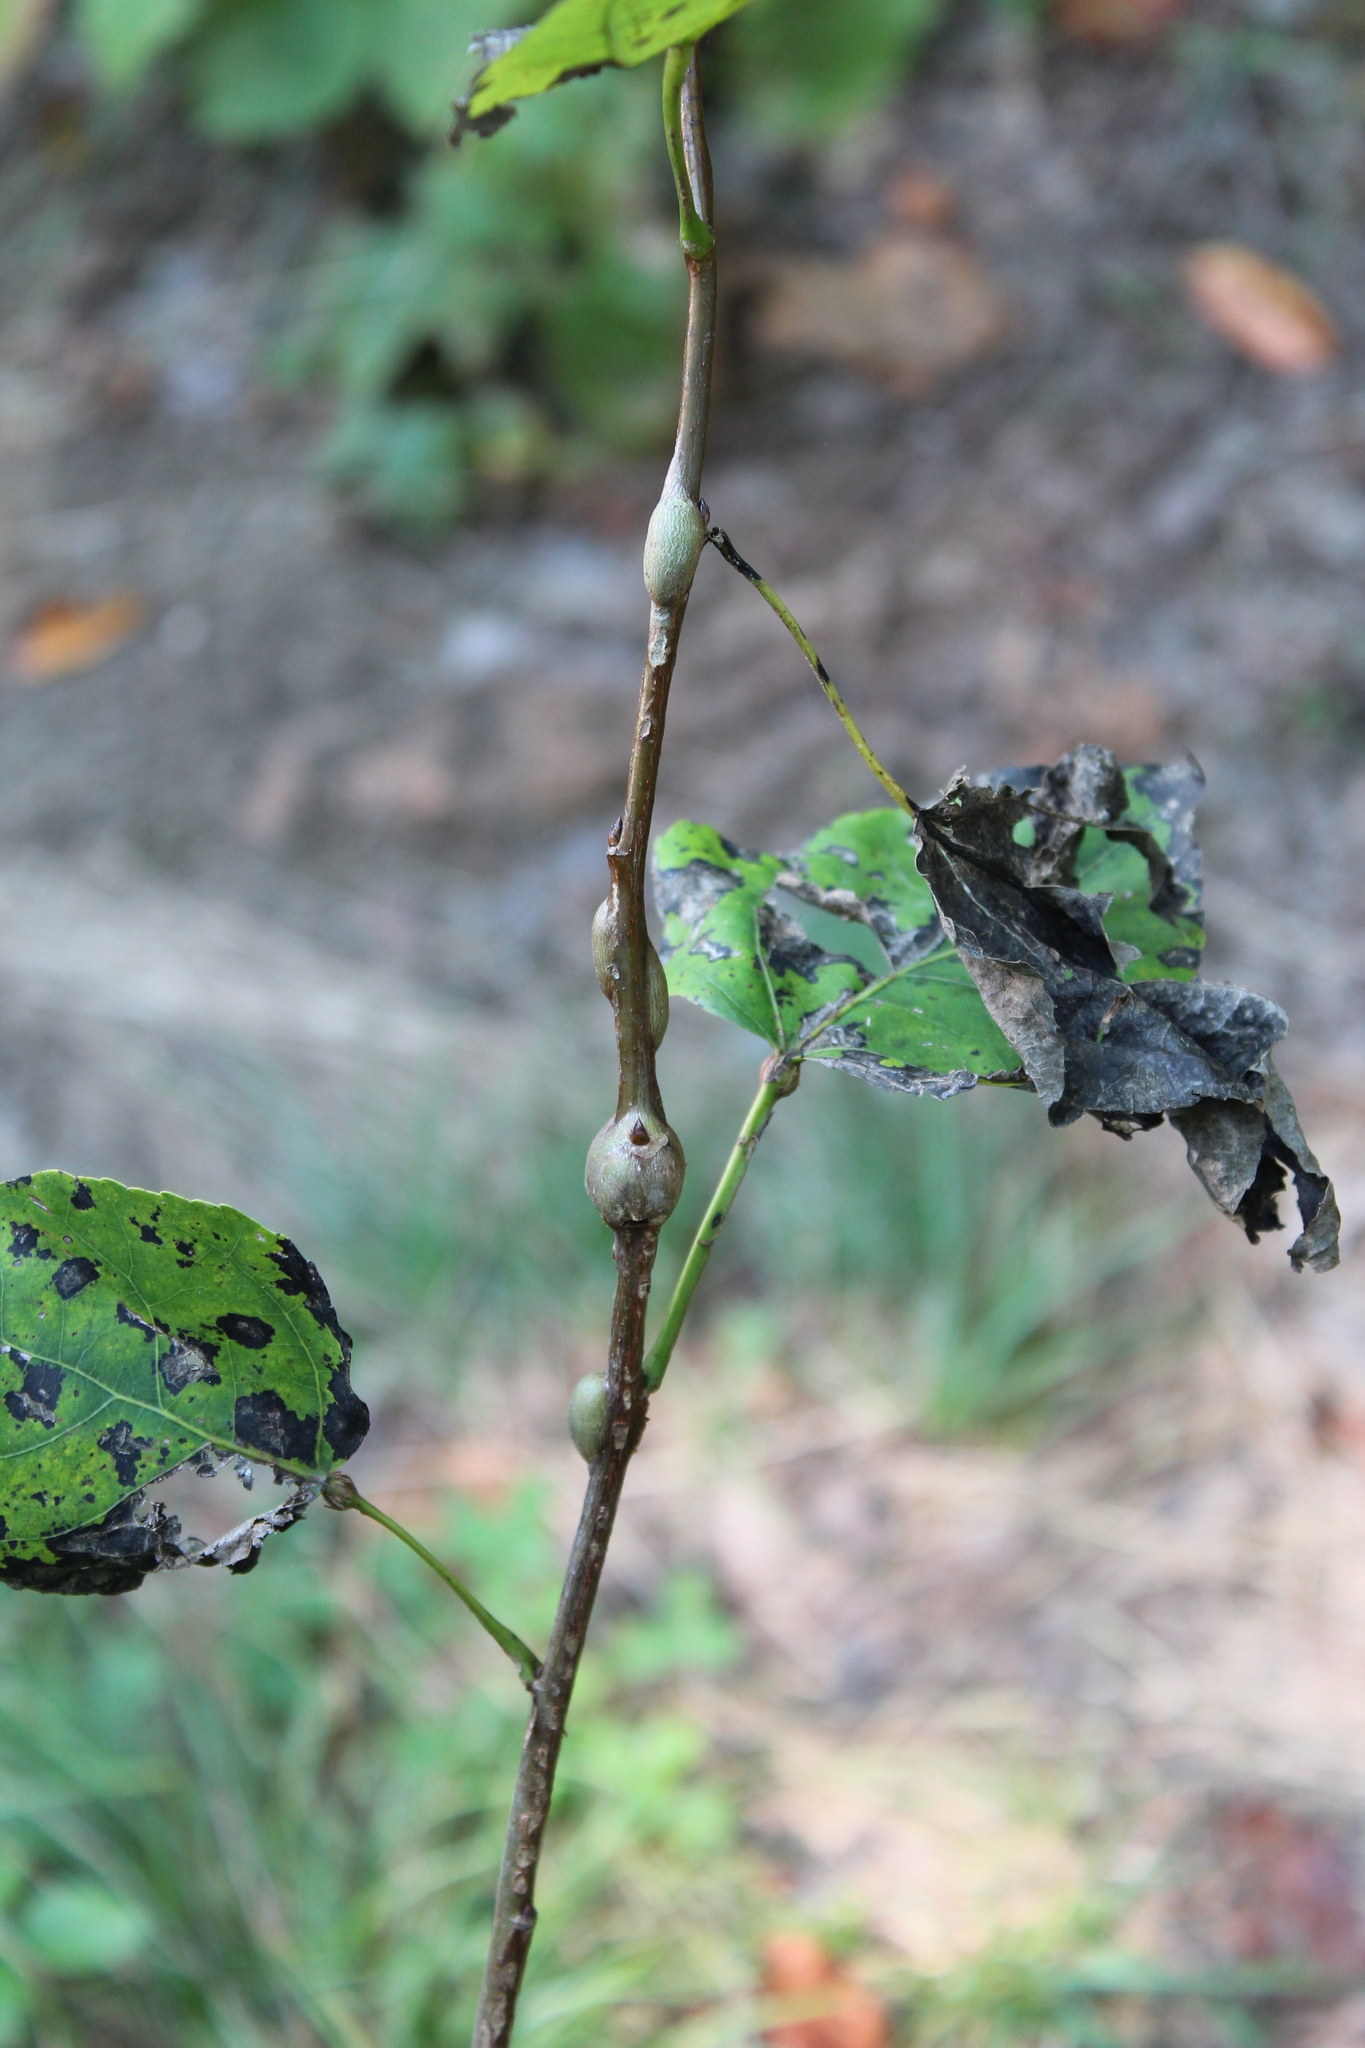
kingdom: Animalia
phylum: Arthropoda
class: Insecta
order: Diptera
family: Agromyzidae
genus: Euhexomyza
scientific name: Euhexomyza schineri
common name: Poplar twiggall fly
